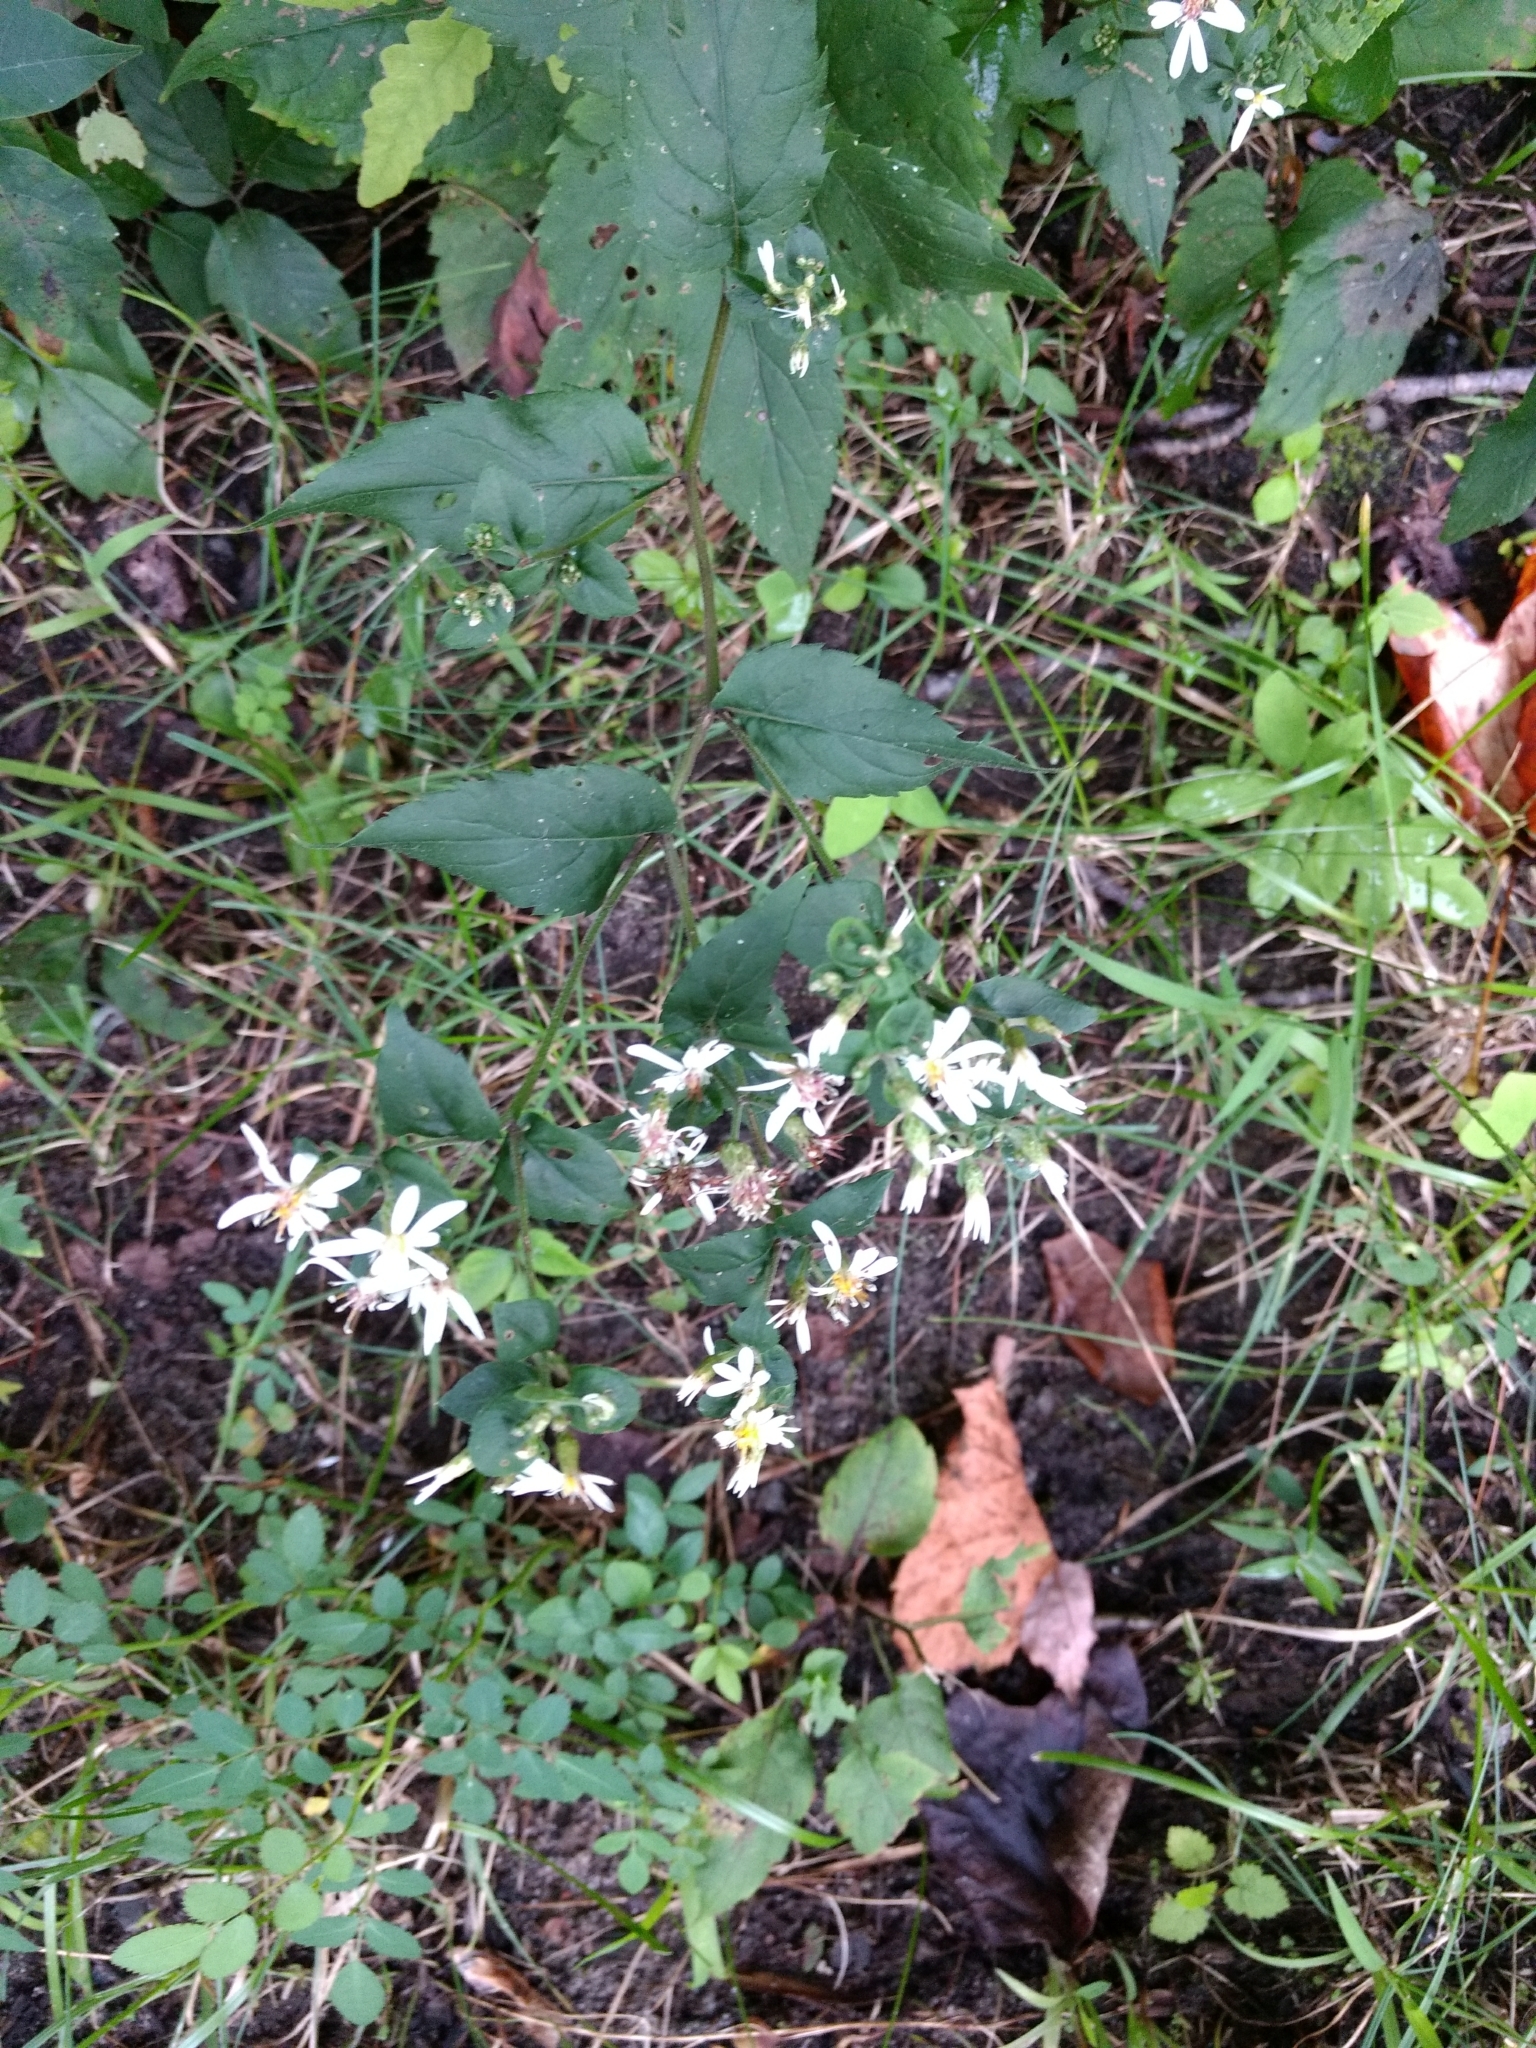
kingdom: Plantae
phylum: Tracheophyta
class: Magnoliopsida
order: Asterales
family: Asteraceae
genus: Eurybia
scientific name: Eurybia divaricata
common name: White wood aster
